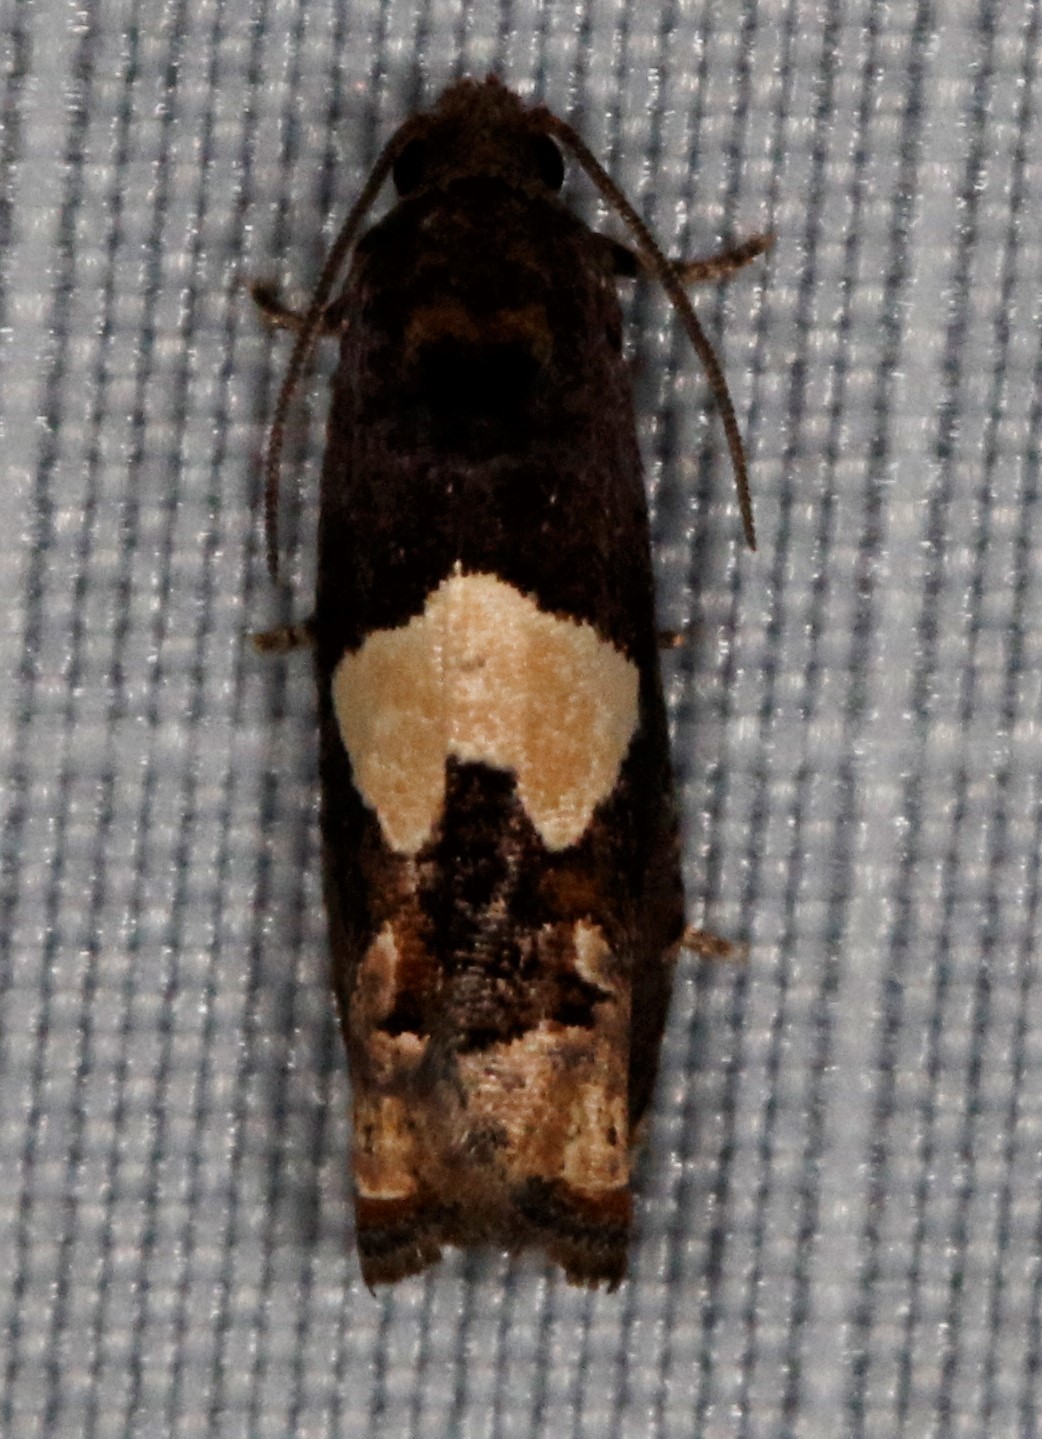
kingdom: Animalia
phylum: Arthropoda
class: Insecta
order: Lepidoptera
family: Tortricidae
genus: Epiblema
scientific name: Epiblema otiosana
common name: Bidens borer moth
